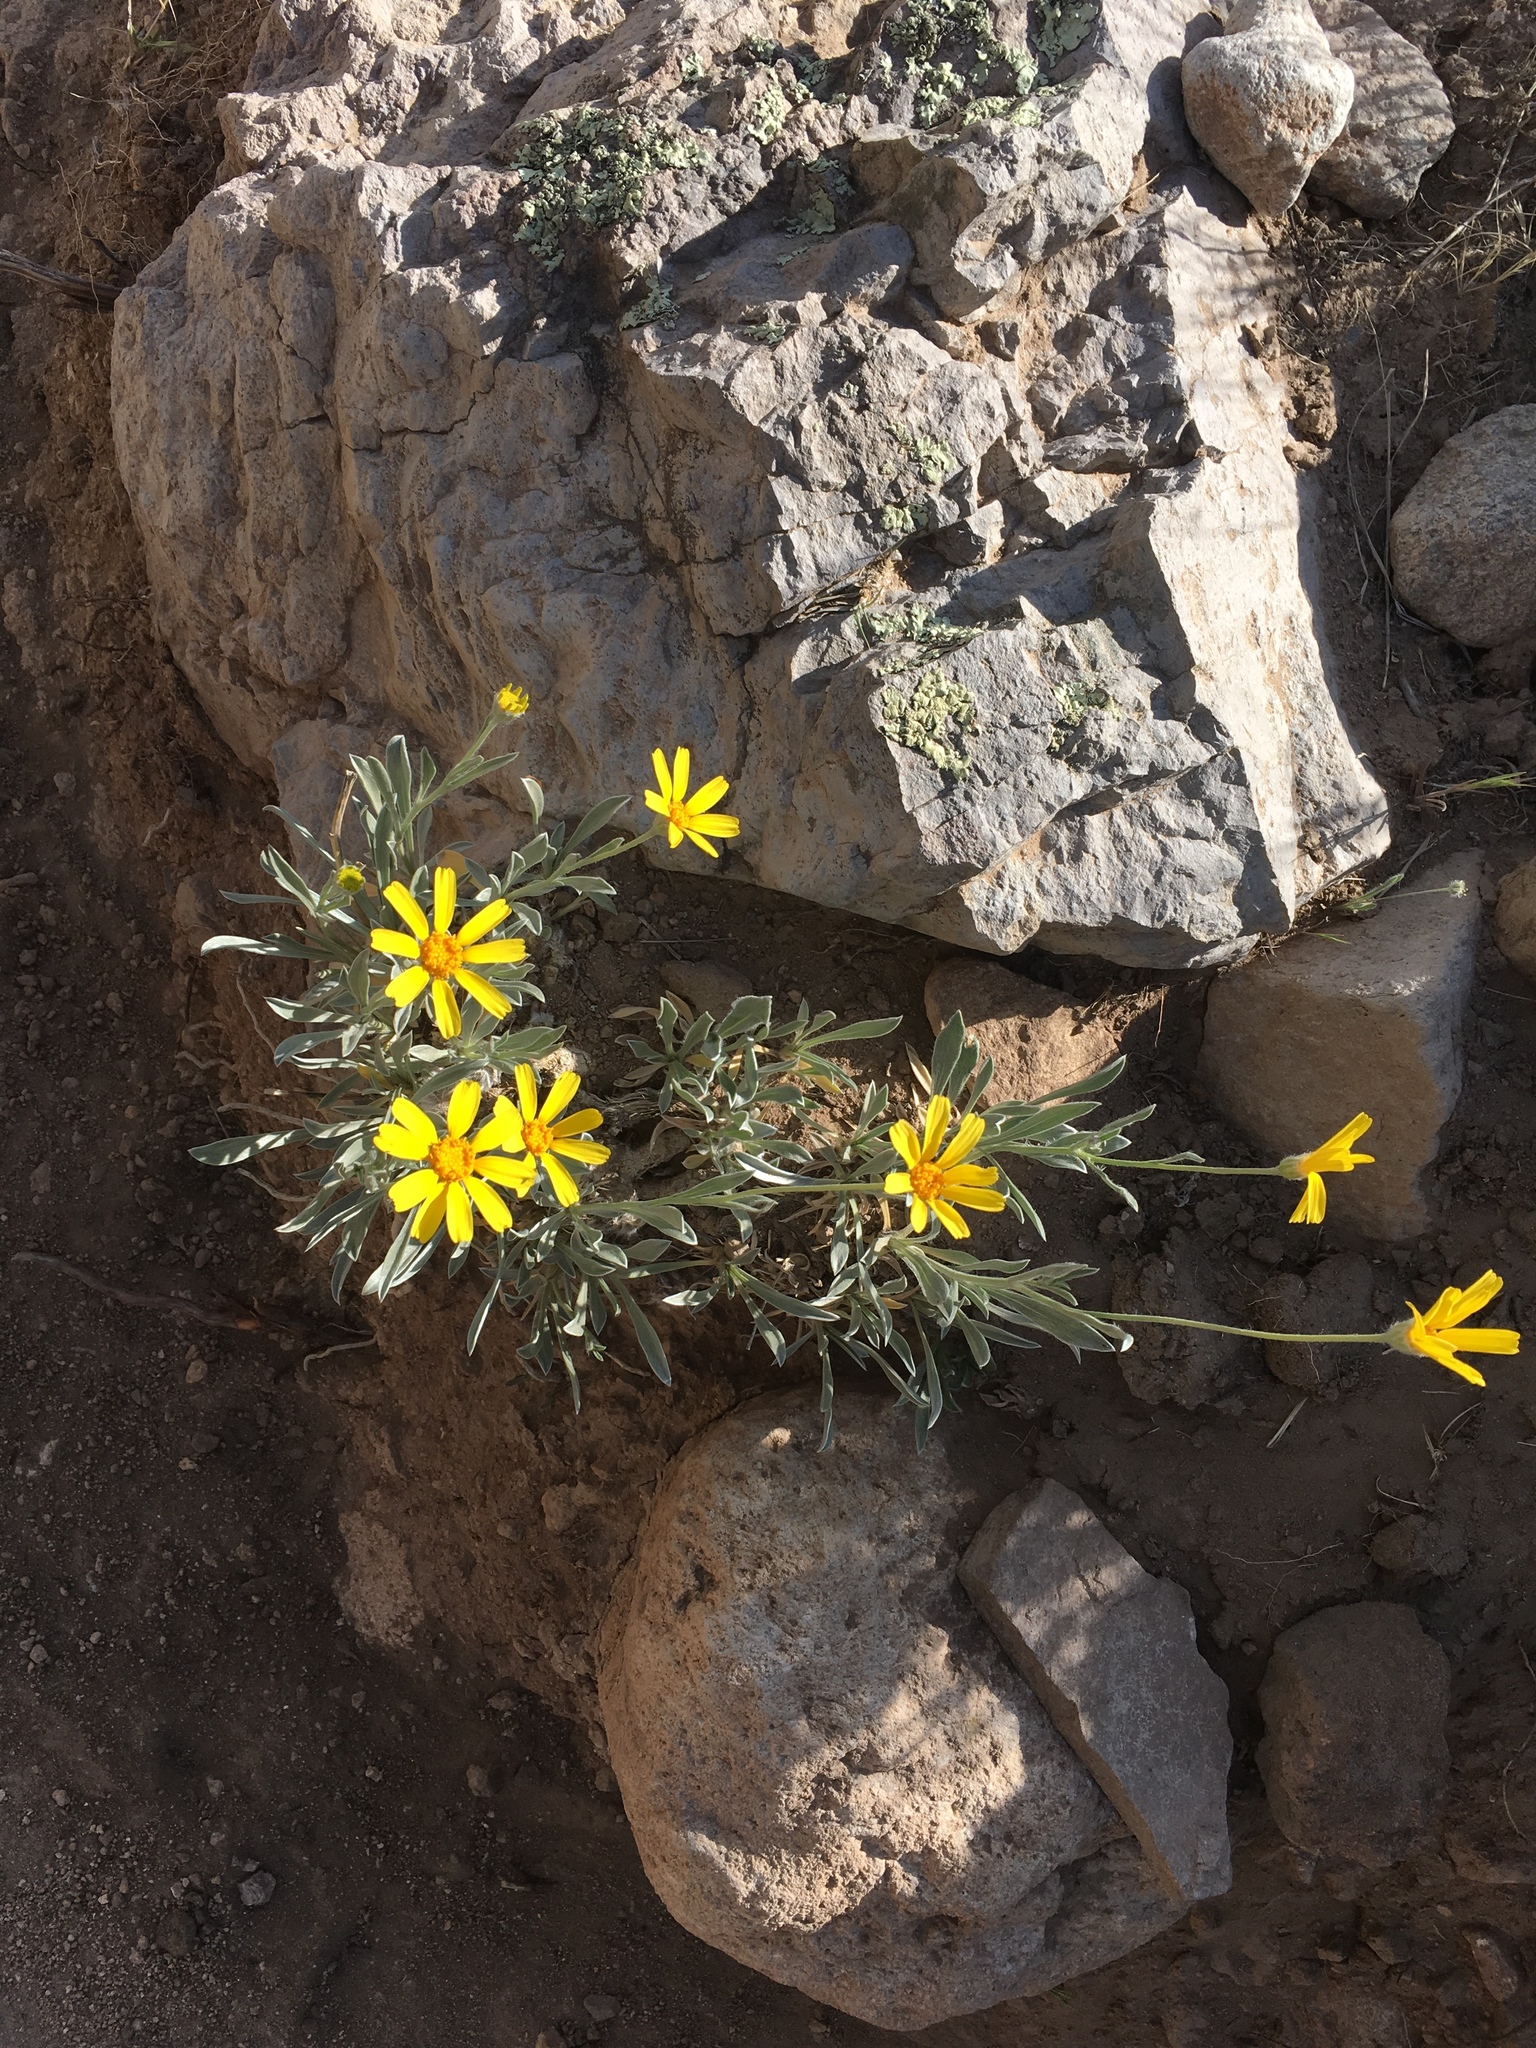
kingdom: Plantae
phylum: Tracheophyta
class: Magnoliopsida
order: Asterales
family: Asteraceae
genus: Tetraneuris
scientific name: Tetraneuris argentea
